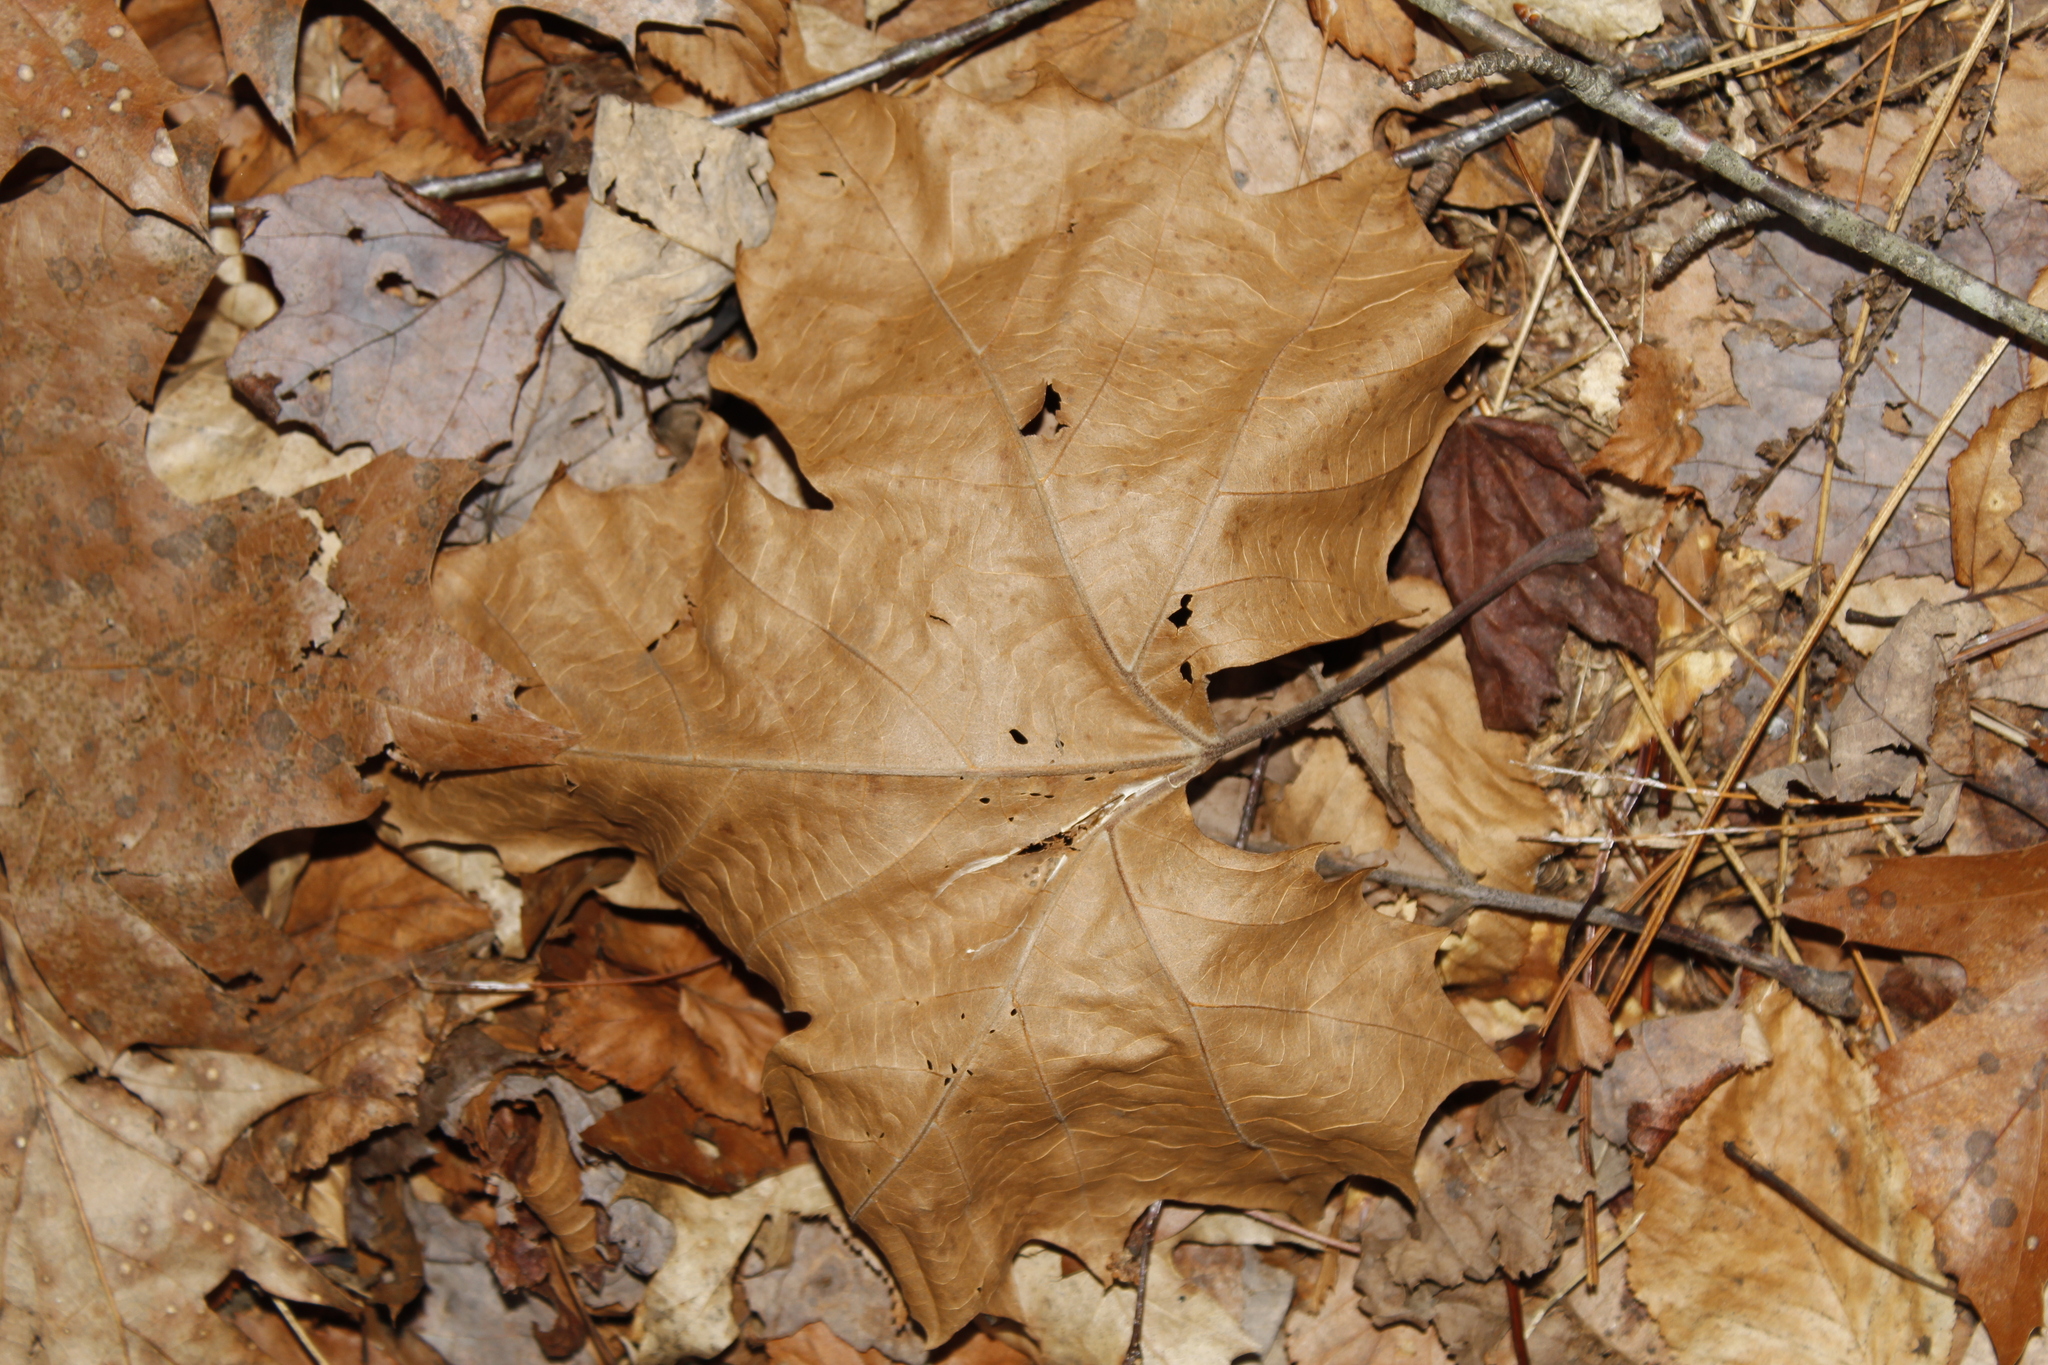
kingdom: Plantae
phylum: Tracheophyta
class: Magnoliopsida
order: Proteales
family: Platanaceae
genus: Platanus
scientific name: Platanus occidentalis
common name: American sycamore
